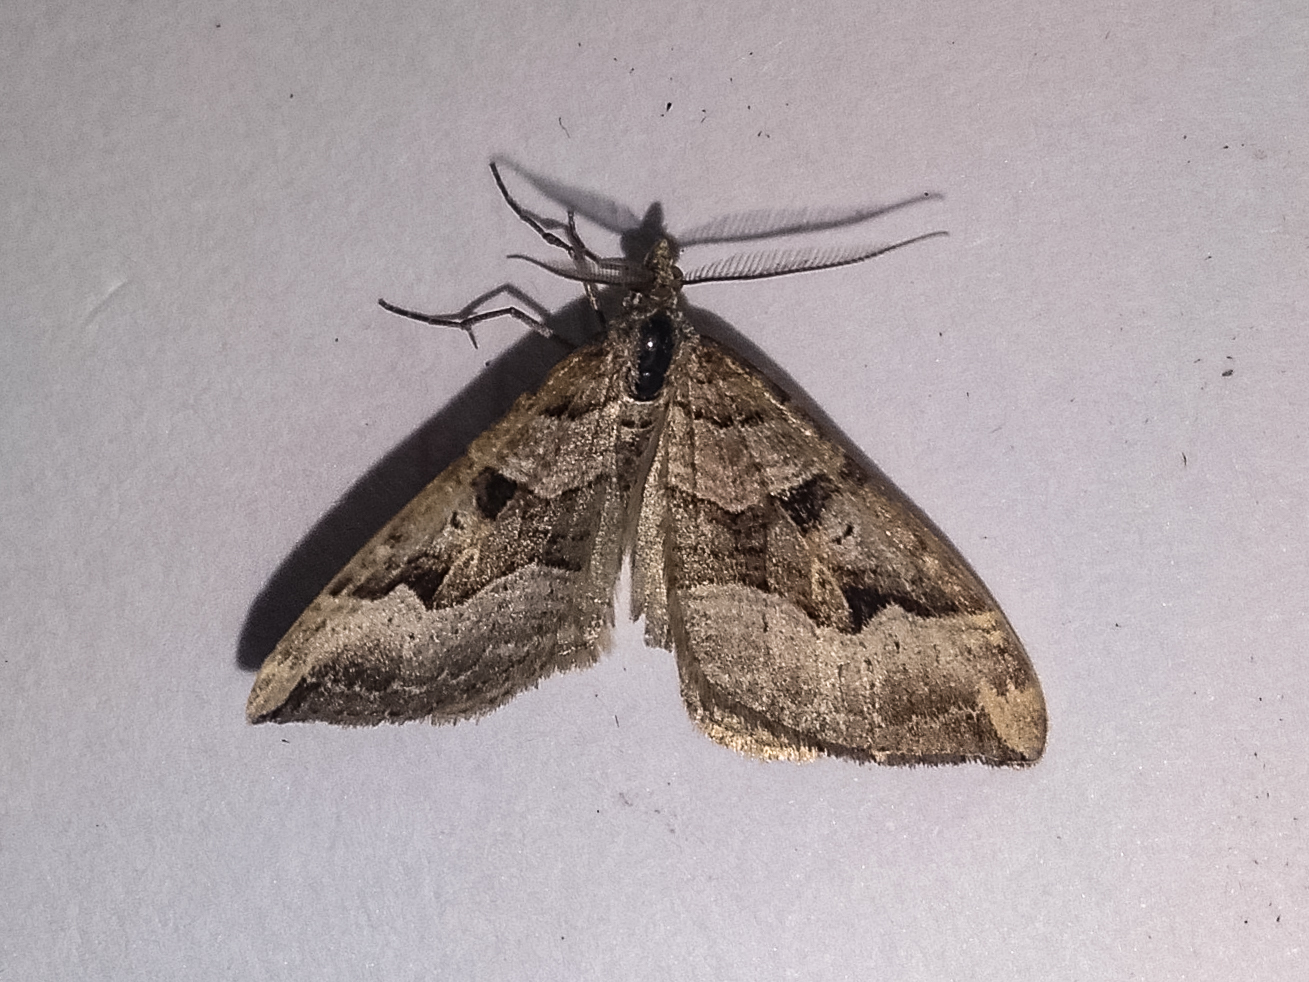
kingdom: Animalia
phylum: Arthropoda
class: Insecta
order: Lepidoptera
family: Geometridae
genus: Xanthorhoe
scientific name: Xanthorhoe semifissata
